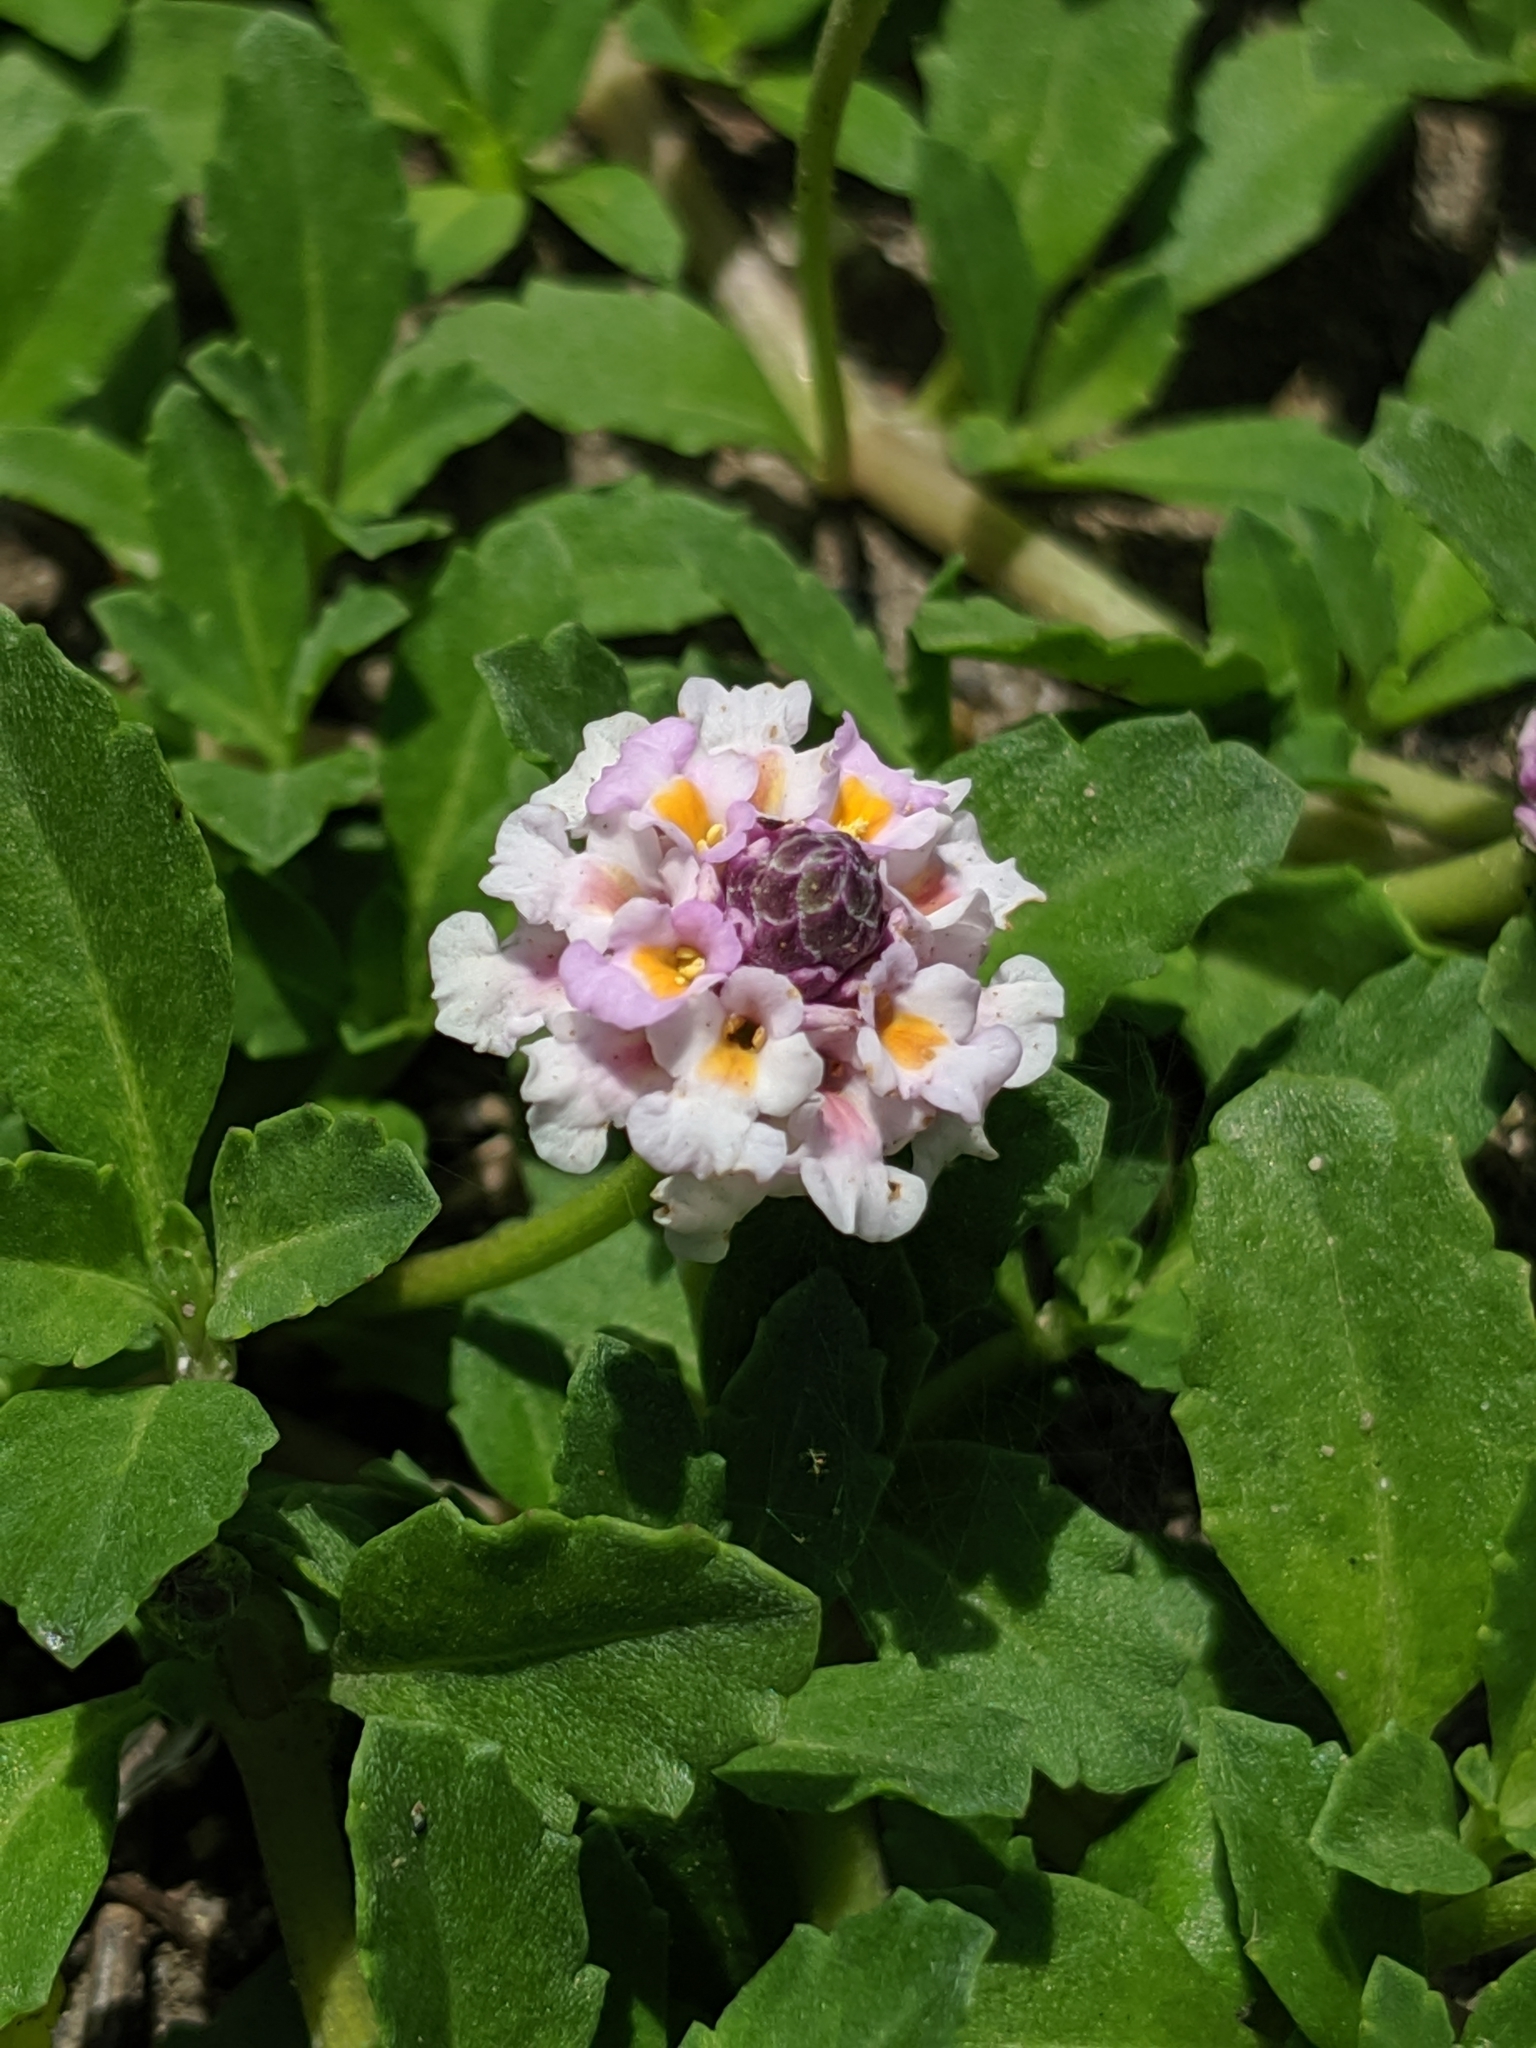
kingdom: Plantae
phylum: Tracheophyta
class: Magnoliopsida
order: Lamiales
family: Verbenaceae
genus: Phyla
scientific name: Phyla nodiflora
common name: Frogfruit
